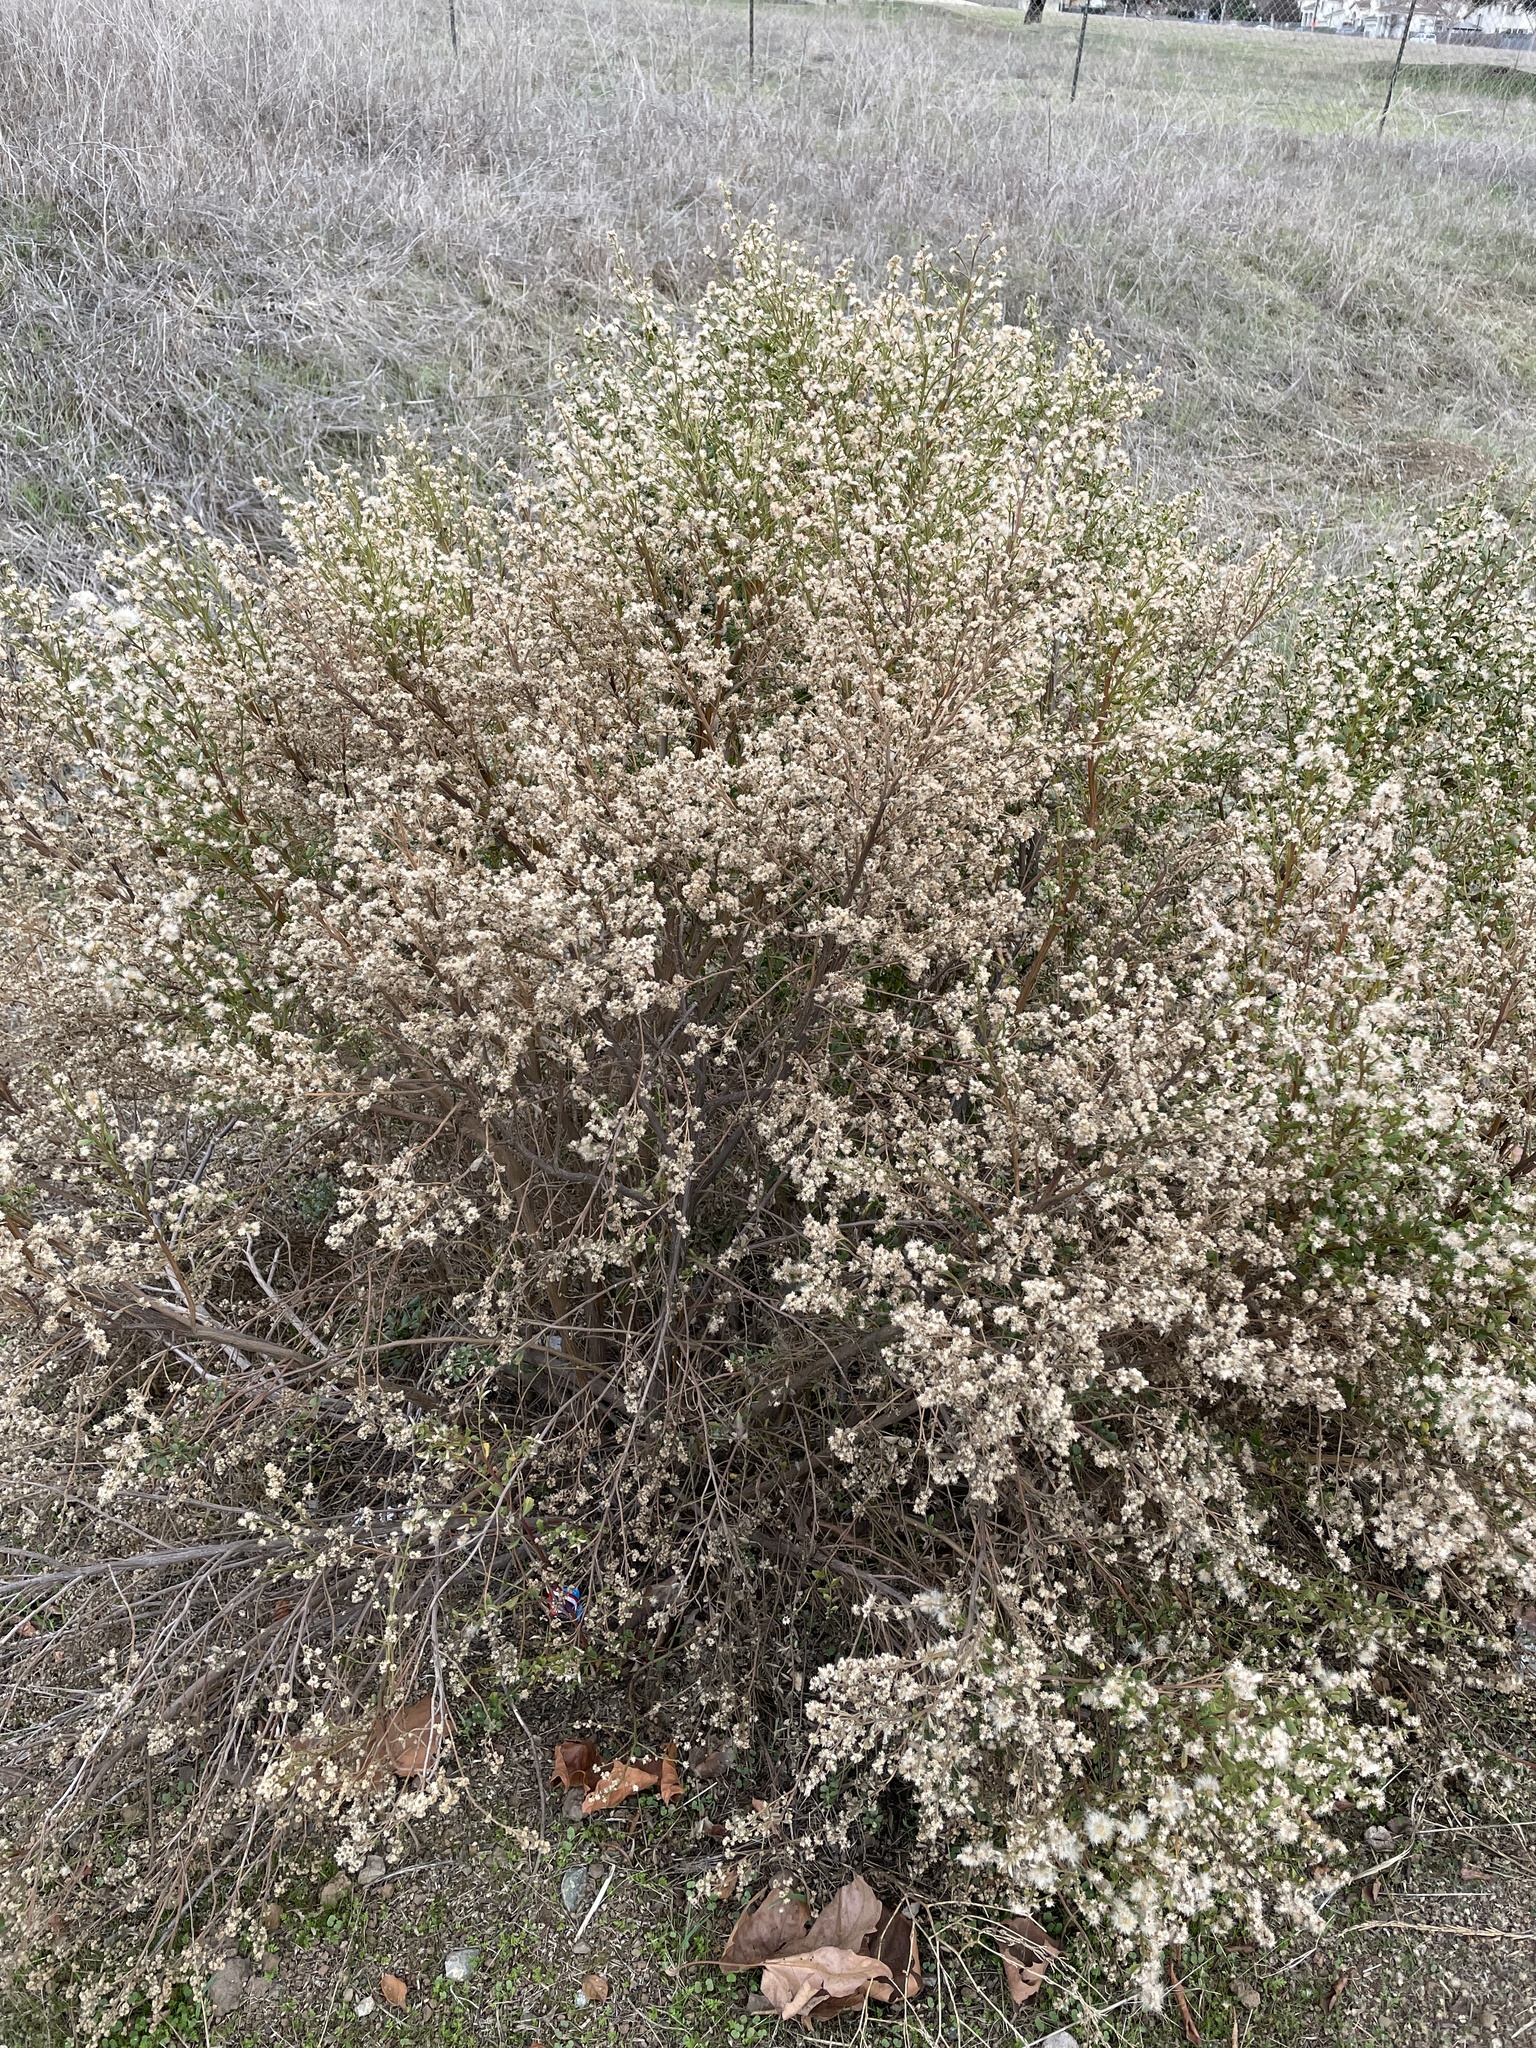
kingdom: Plantae
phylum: Tracheophyta
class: Magnoliopsida
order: Asterales
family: Asteraceae
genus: Baccharis
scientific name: Baccharis pilularis
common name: Coyotebrush
